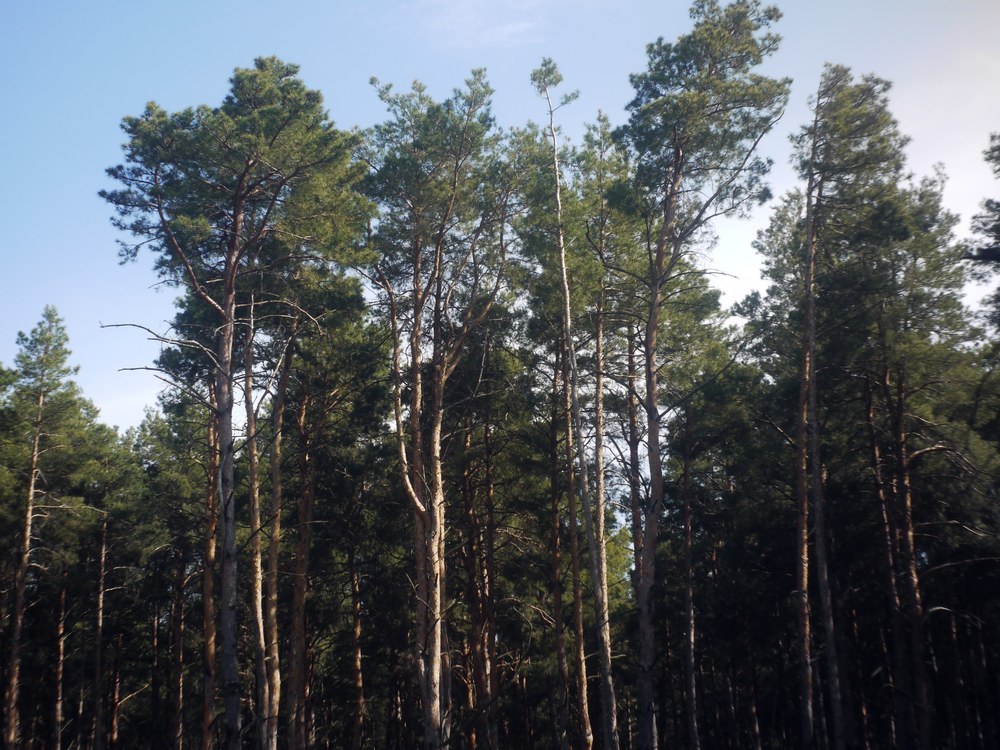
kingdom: Plantae
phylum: Tracheophyta
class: Pinopsida
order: Pinales
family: Pinaceae
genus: Pinus
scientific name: Pinus sylvestris
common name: Scots pine
